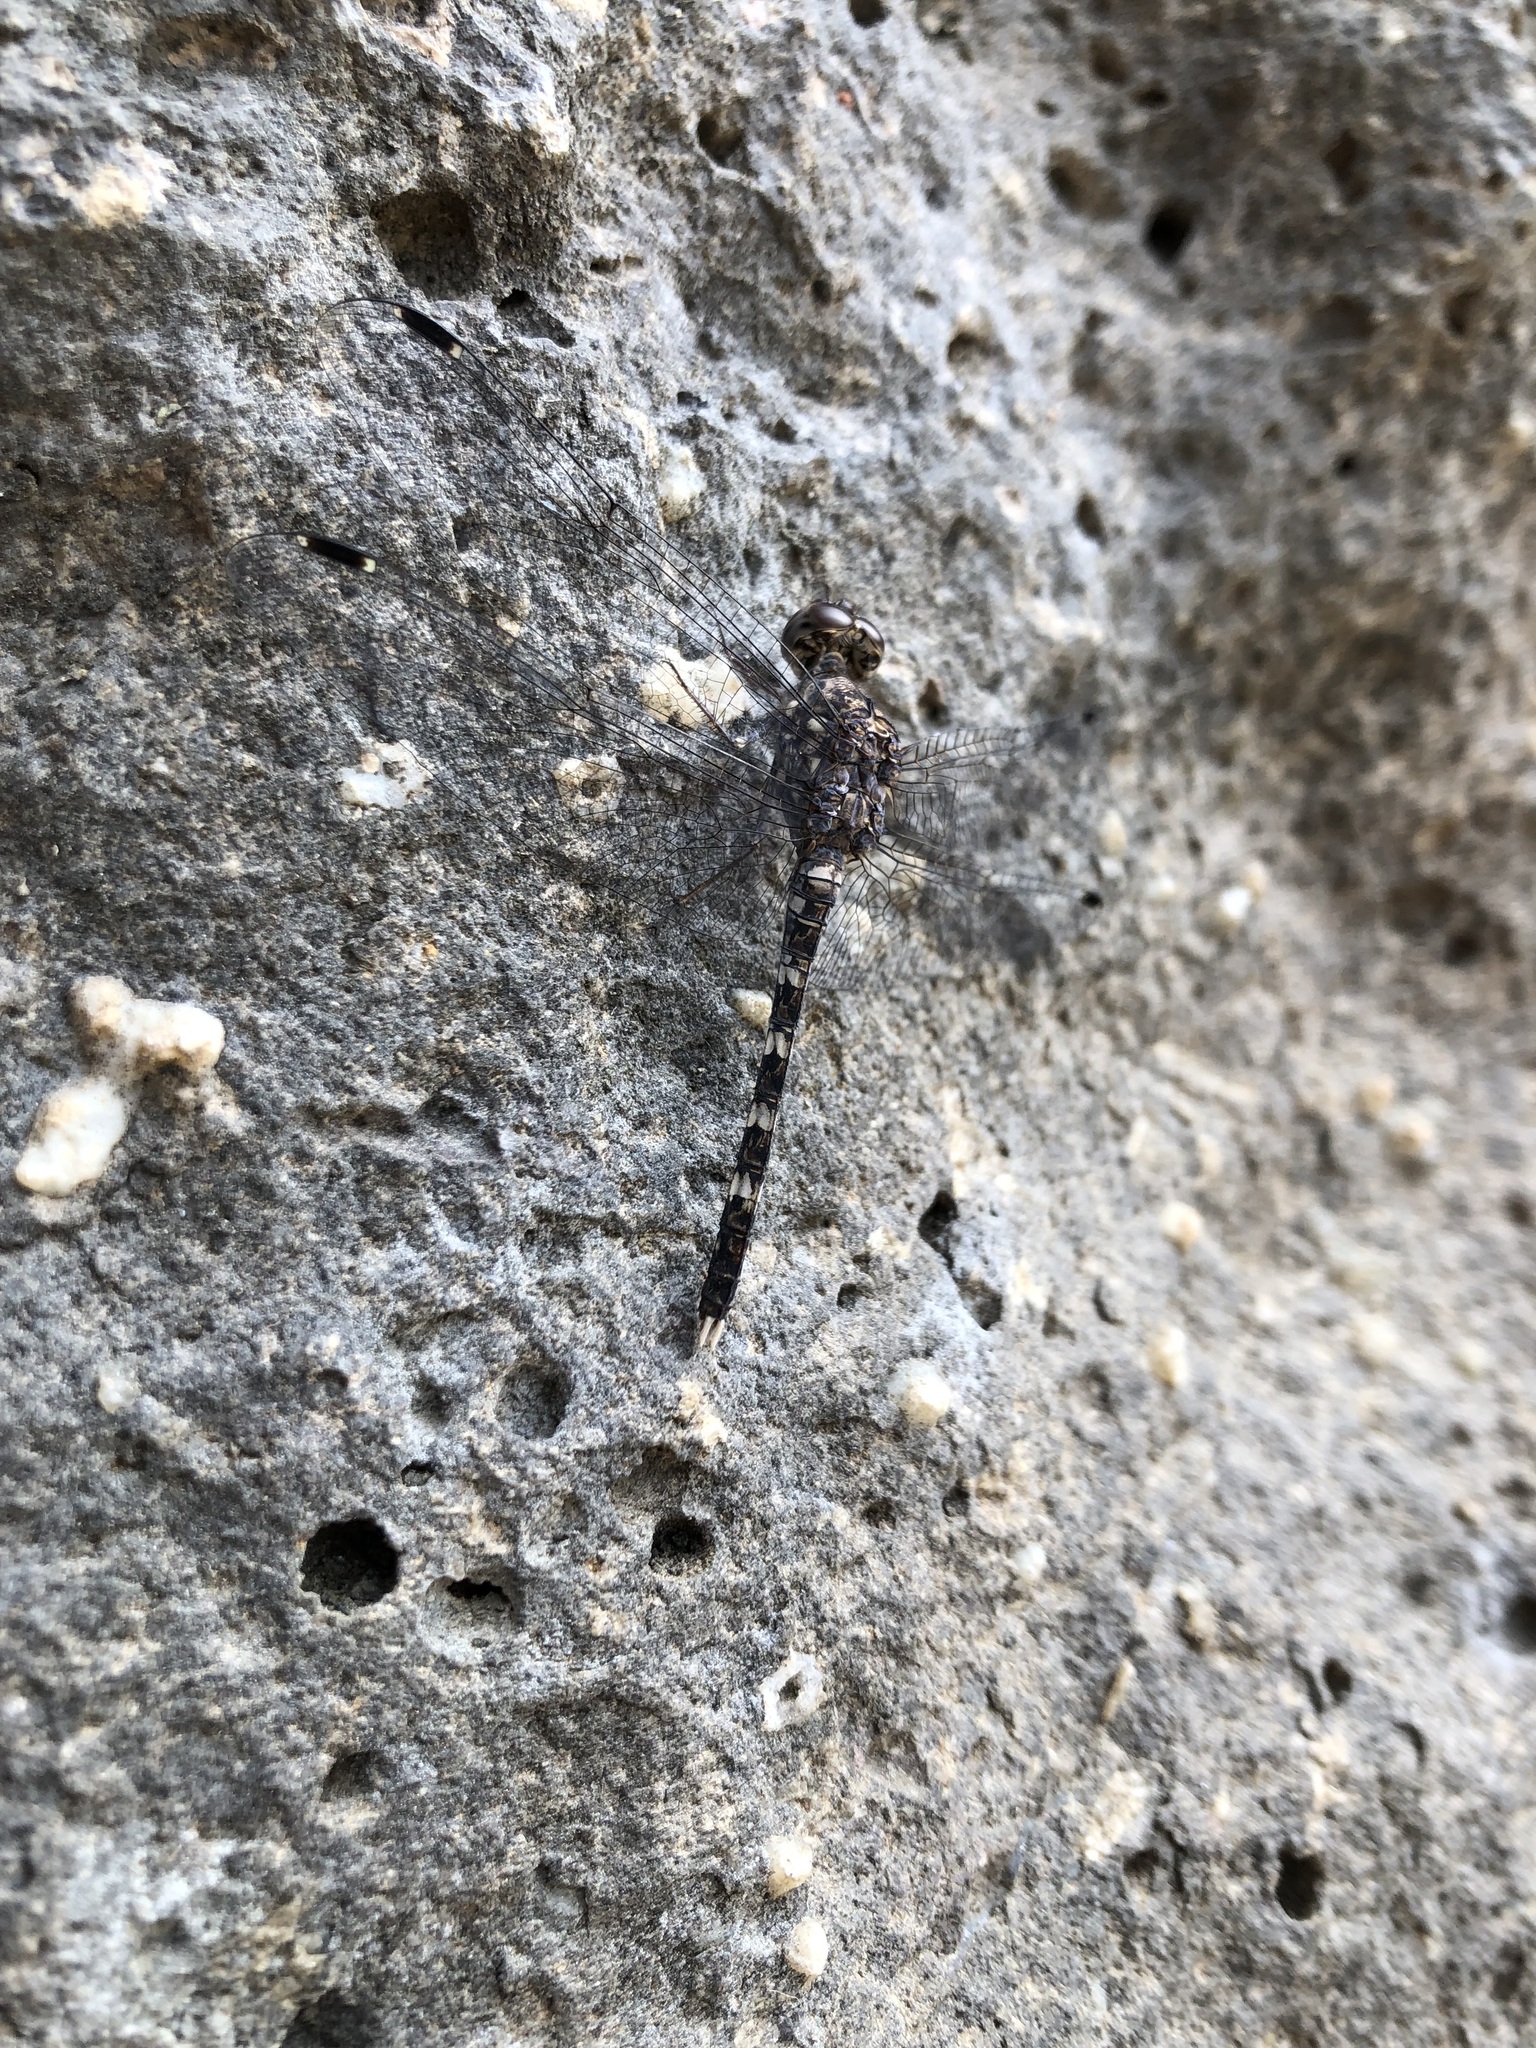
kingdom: Animalia
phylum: Arthropoda
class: Insecta
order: Odonata
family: Libellulidae
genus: Bradinopyga
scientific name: Bradinopyga geminata
